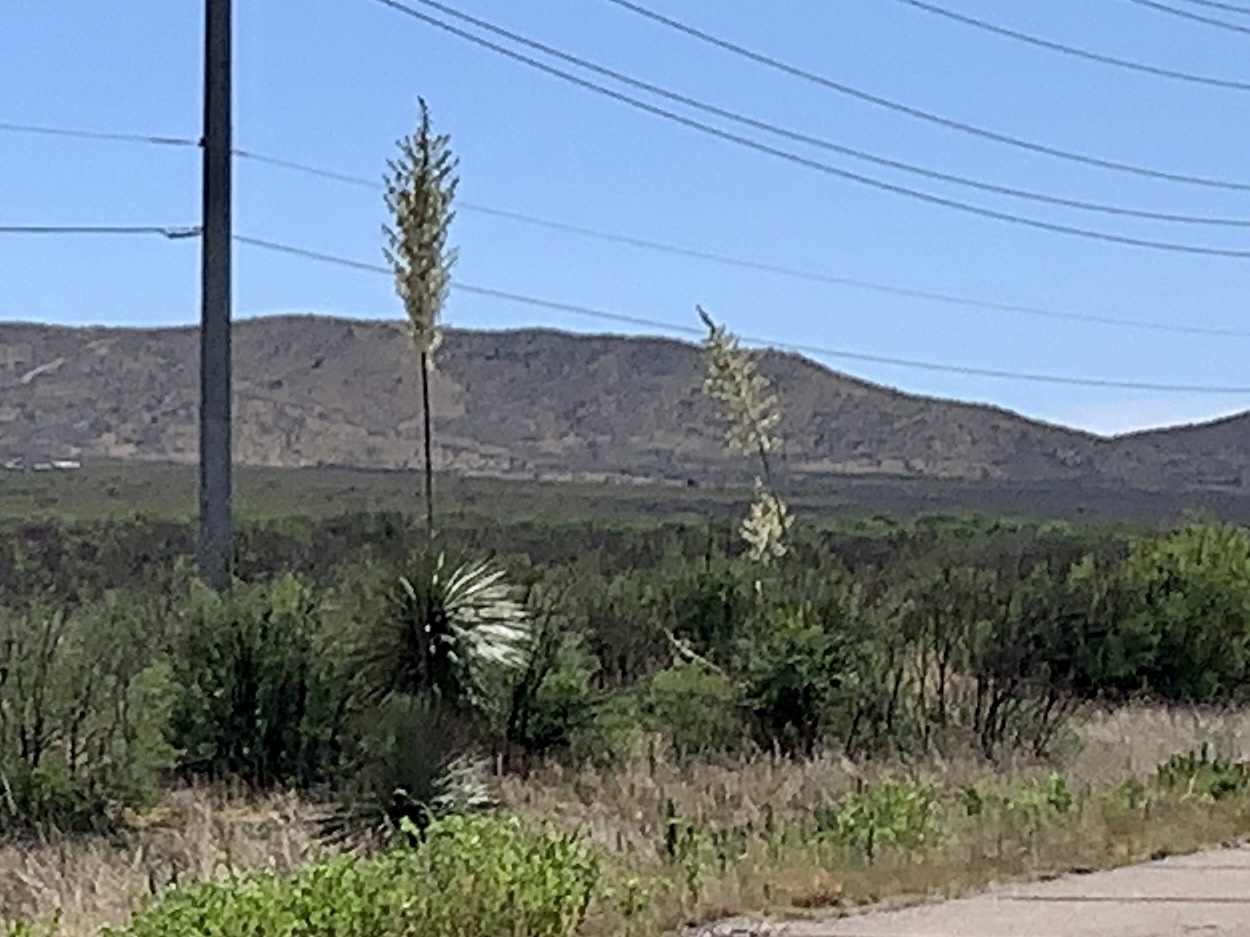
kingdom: Plantae
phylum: Tracheophyta
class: Liliopsida
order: Asparagales
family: Asparagaceae
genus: Yucca
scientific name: Yucca elata
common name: Palmella
